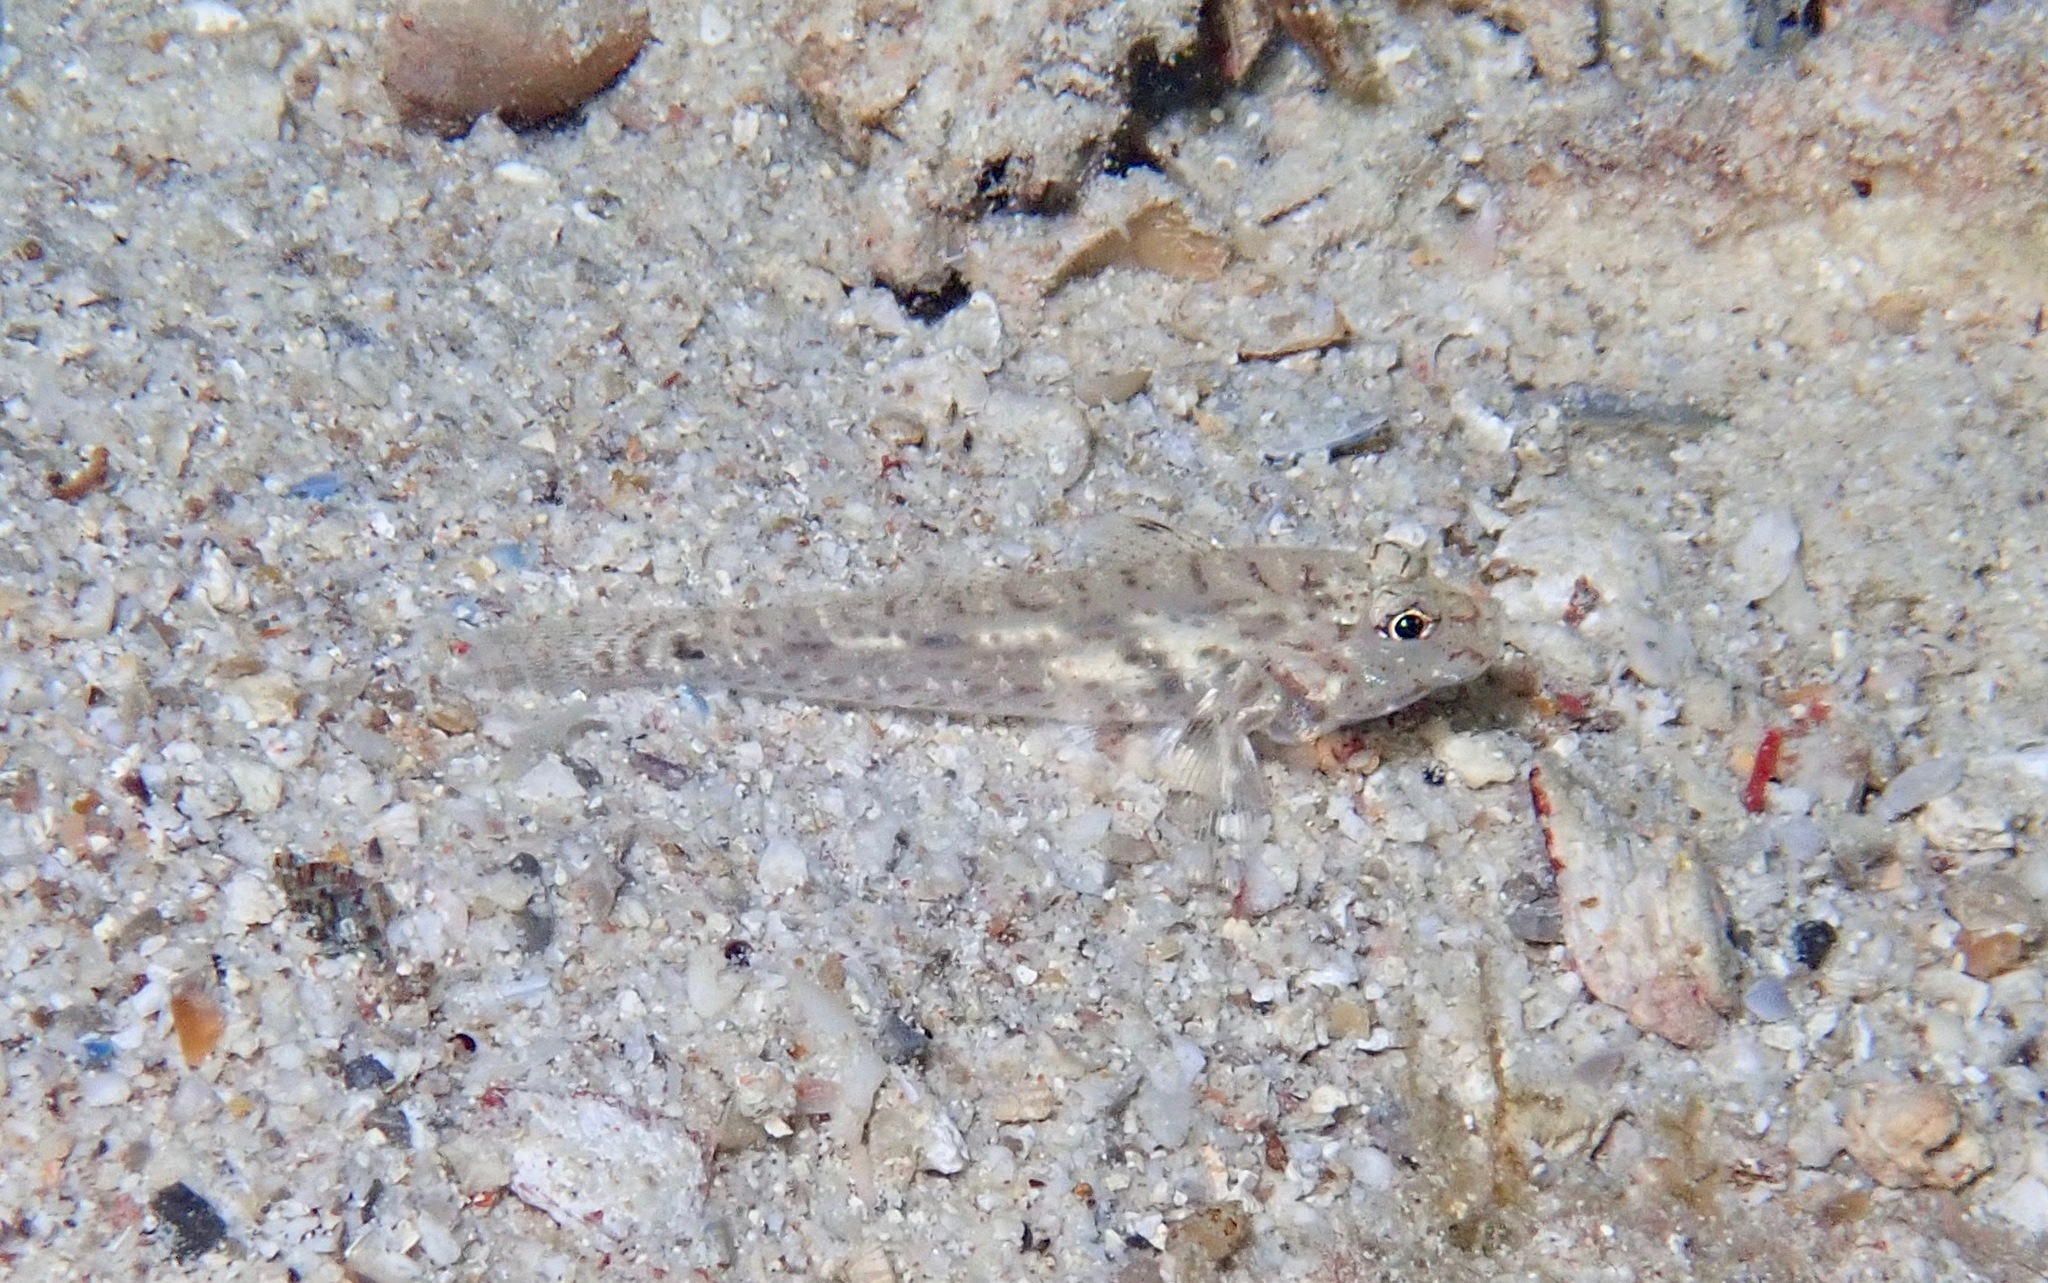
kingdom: Animalia
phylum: Chordata
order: Perciformes
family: Gobiidae
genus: Fusigobius
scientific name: Fusigobius neophytus
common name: Sand goby
